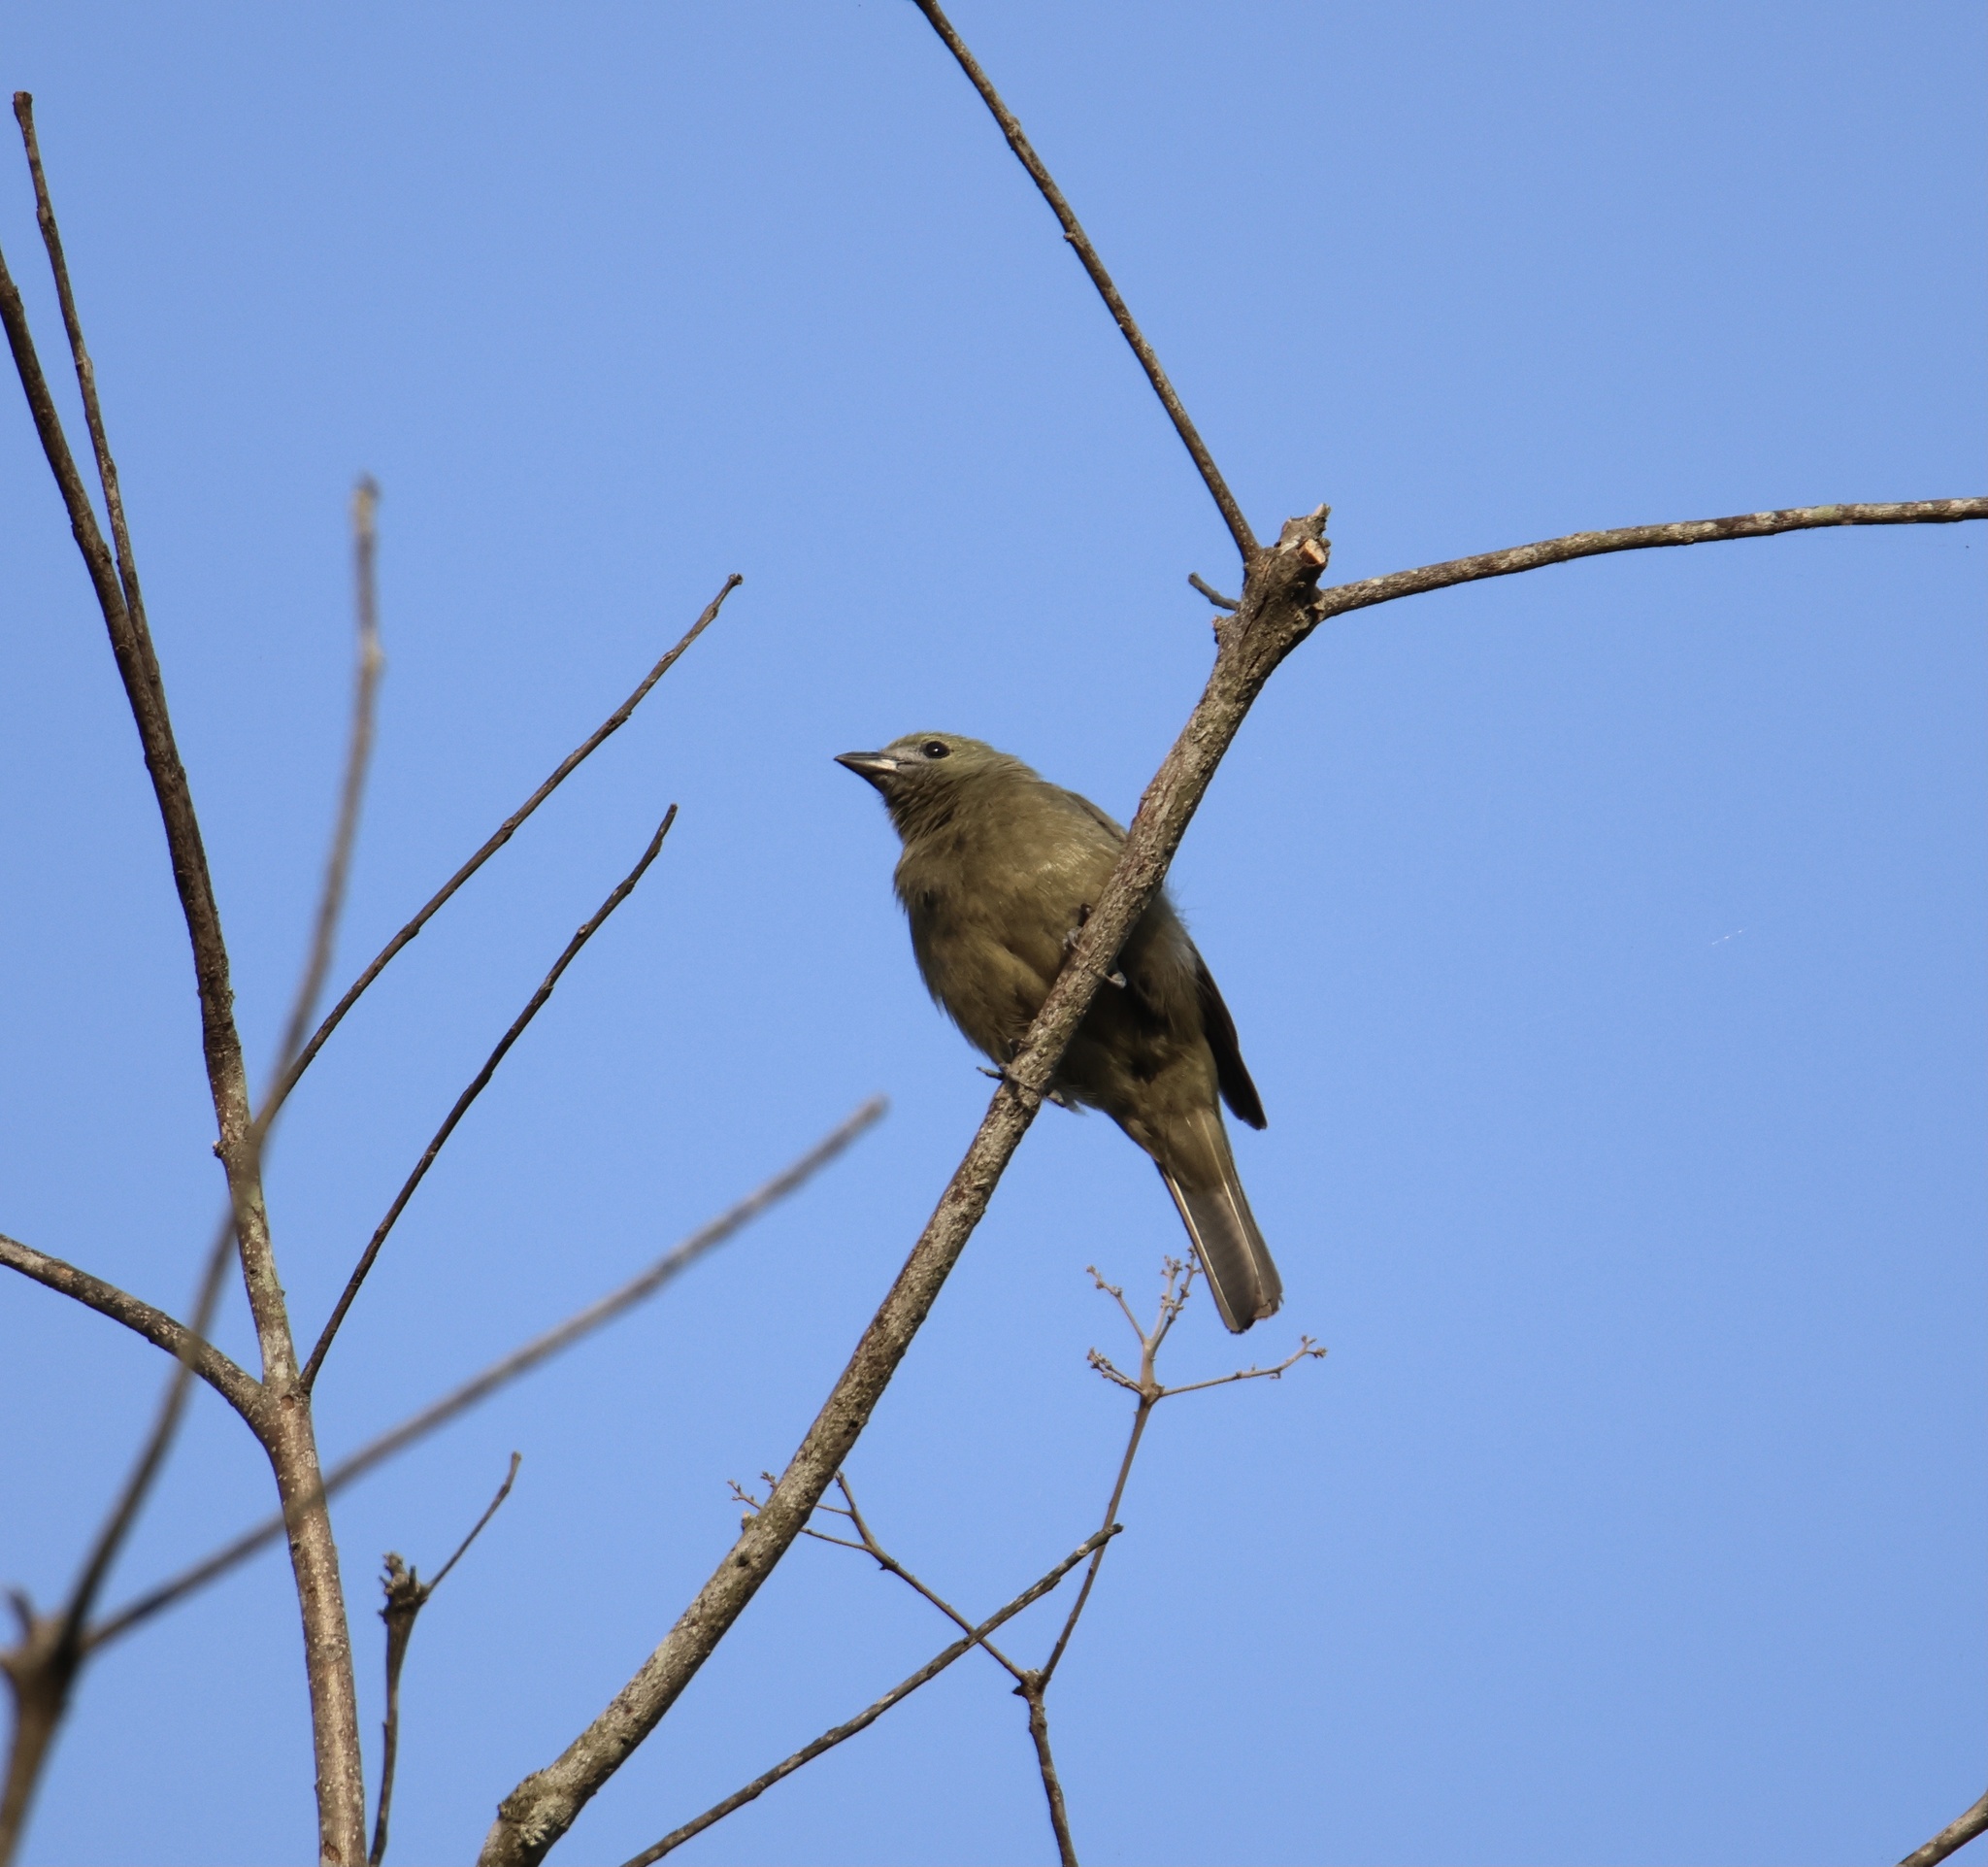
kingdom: Animalia
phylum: Chordata
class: Aves
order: Passeriformes
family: Thraupidae
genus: Thraupis
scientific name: Thraupis palmarum
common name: Palm tanager
